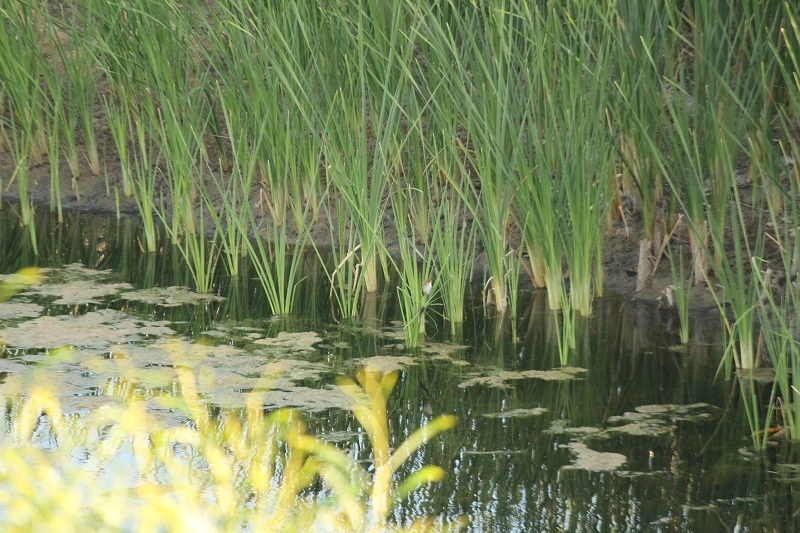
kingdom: Animalia
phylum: Chordata
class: Aves
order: Passeriformes
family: Acrocephalidae
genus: Acrocephalus
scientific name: Acrocephalus gracilirostris
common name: Lesser swamp warbler
